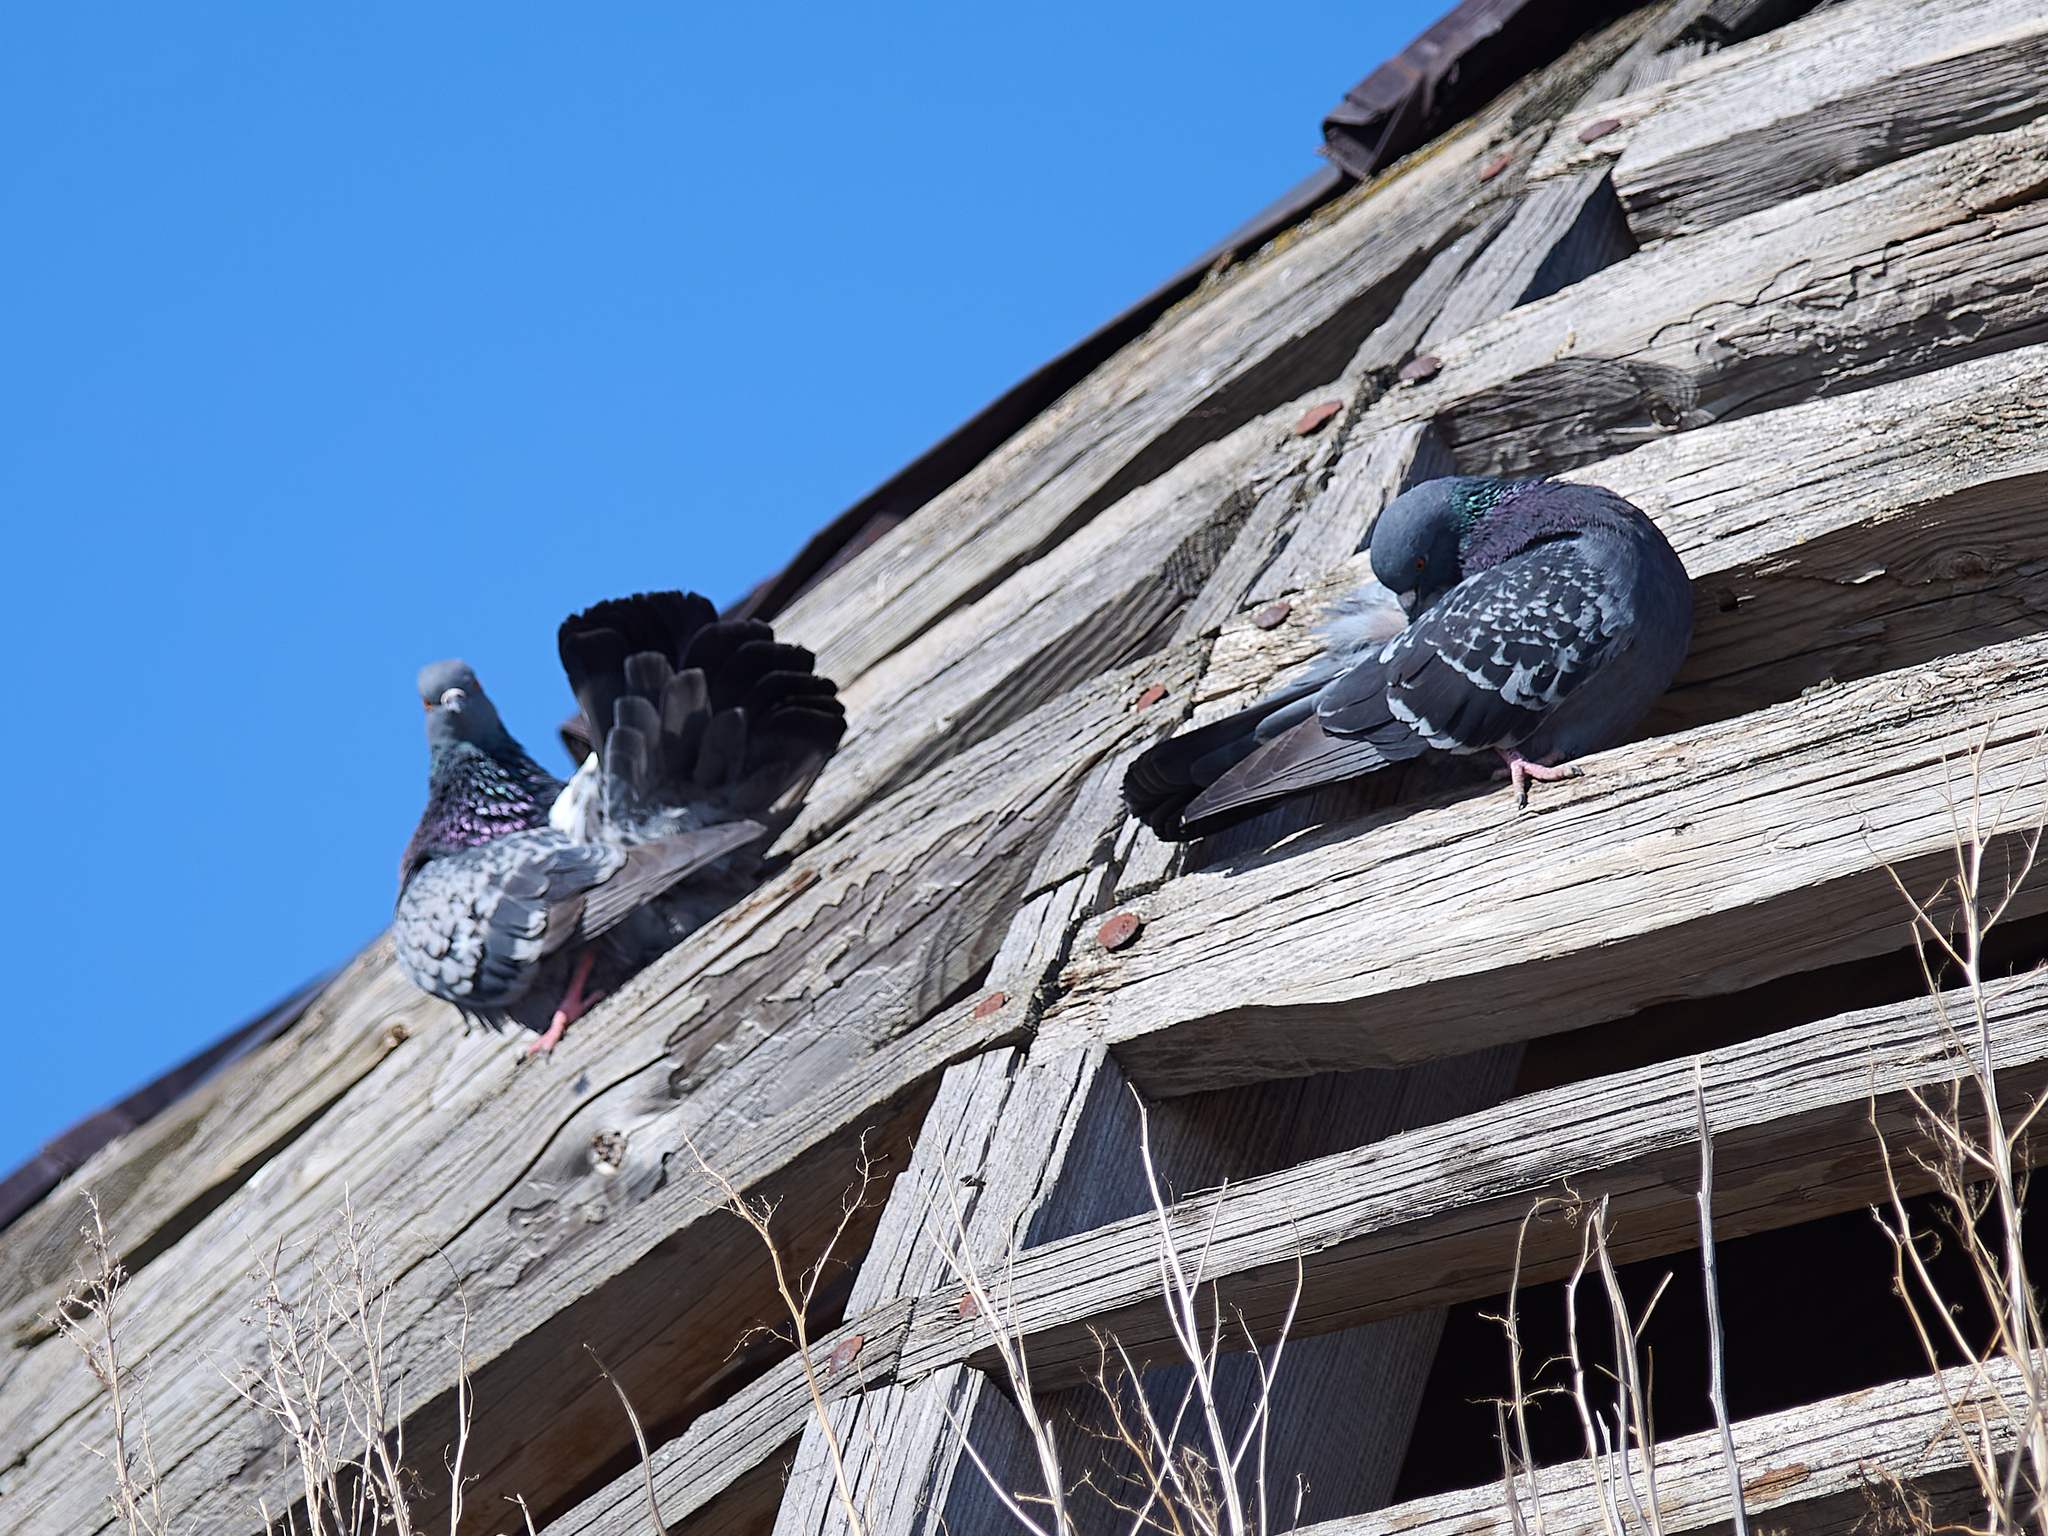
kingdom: Animalia
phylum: Chordata
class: Aves
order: Columbiformes
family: Columbidae
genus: Columba
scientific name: Columba livia
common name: Rock pigeon
